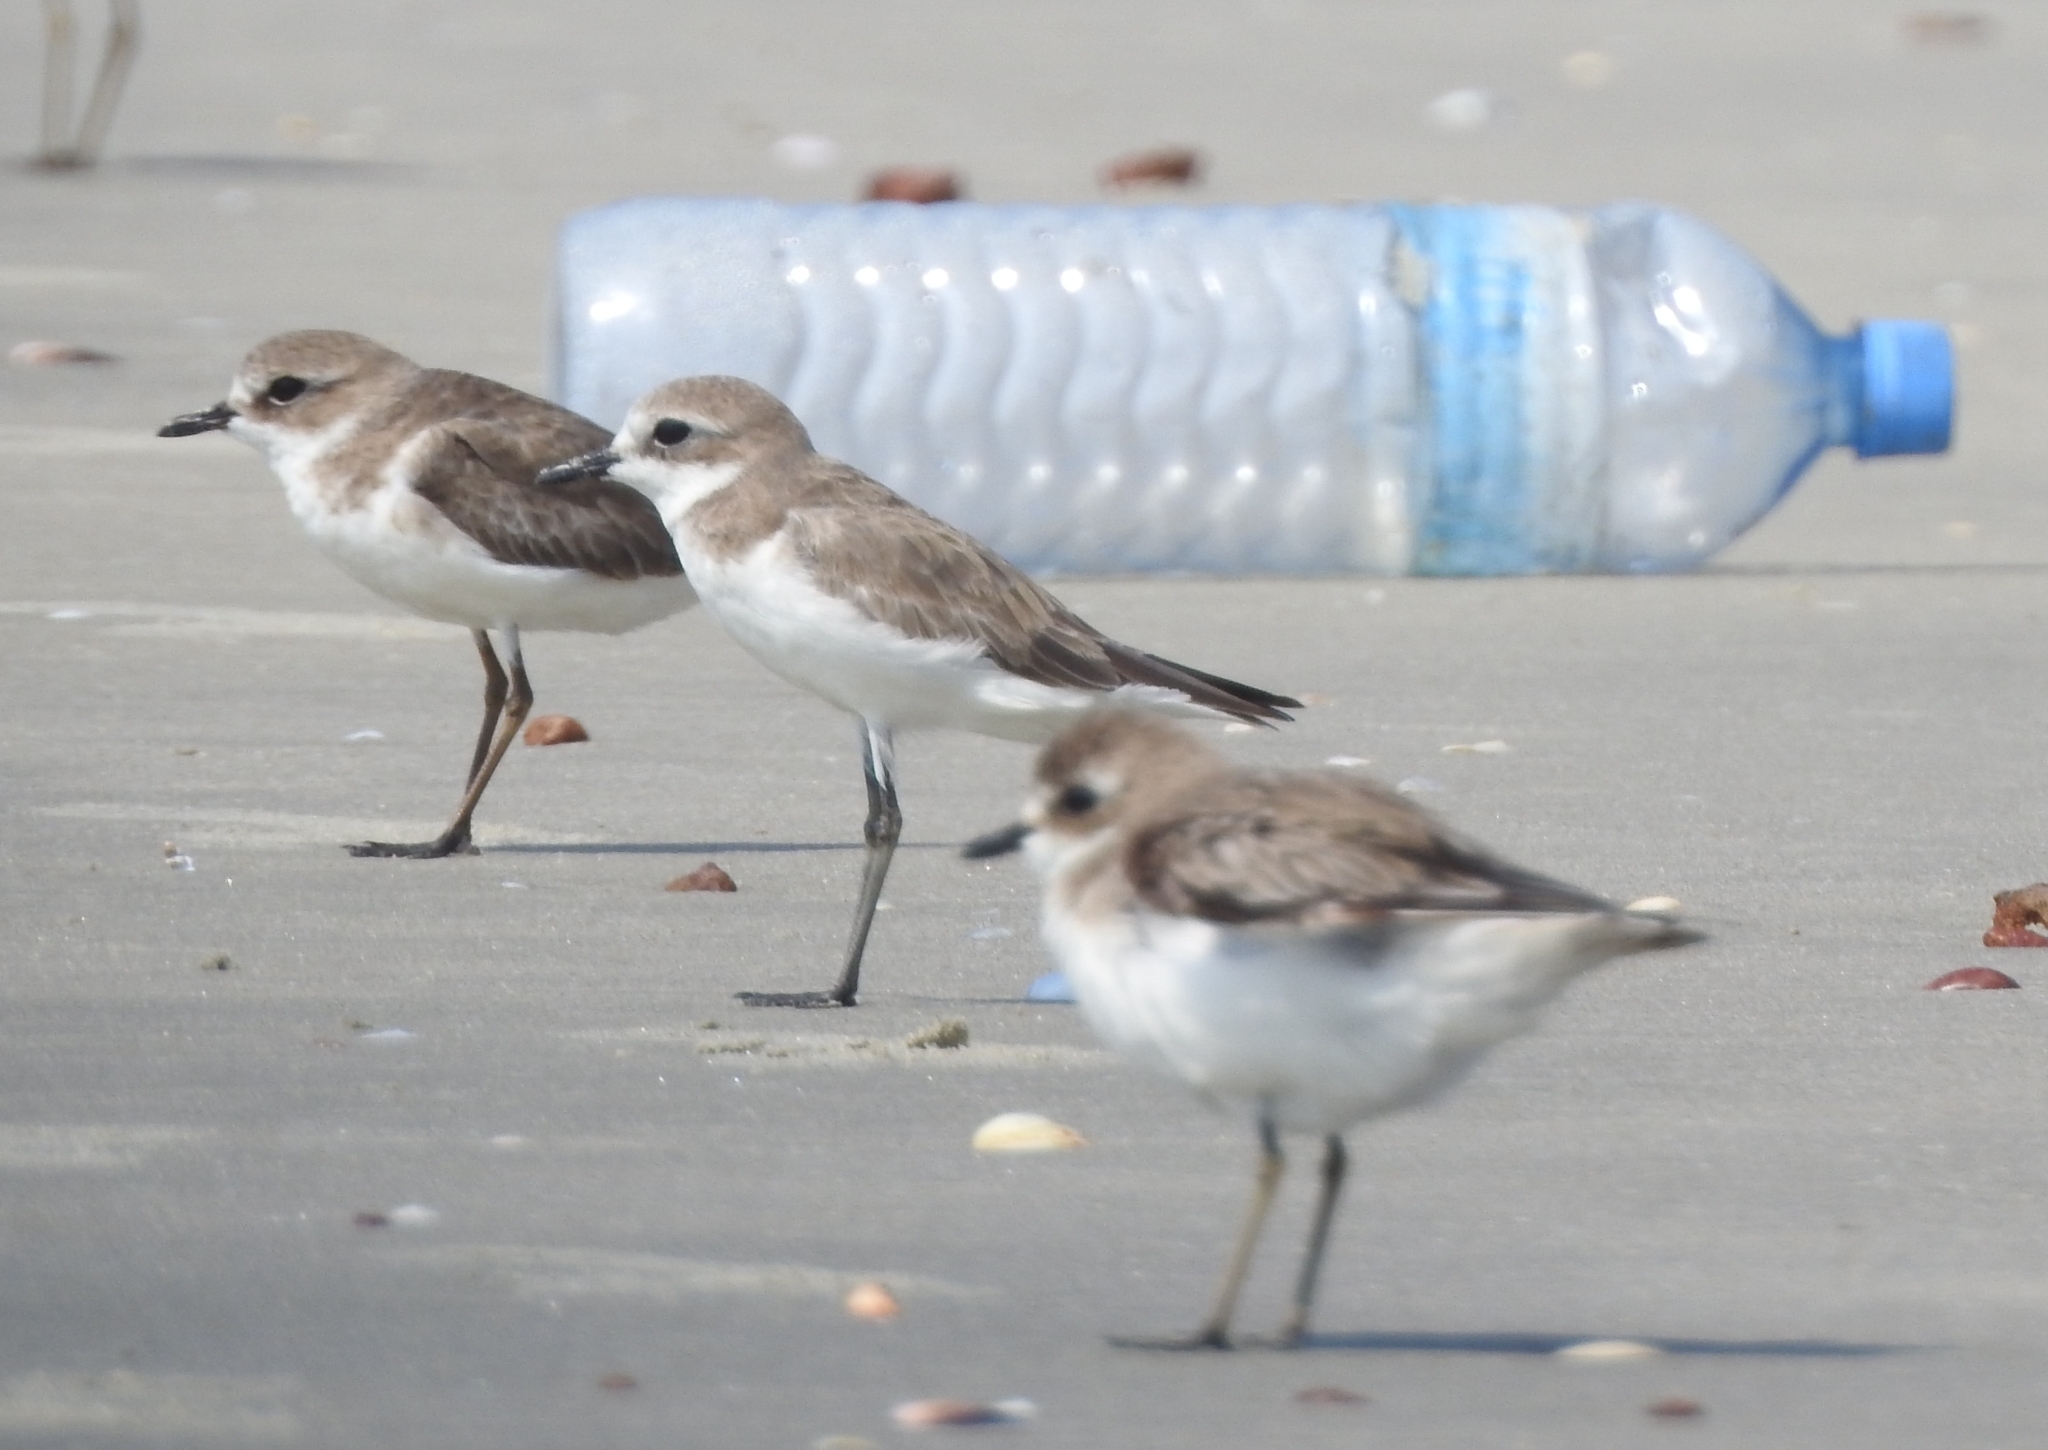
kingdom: Animalia
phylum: Chordata
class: Aves
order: Charadriiformes
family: Charadriidae
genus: Anarhynchus
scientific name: Anarhynchus
